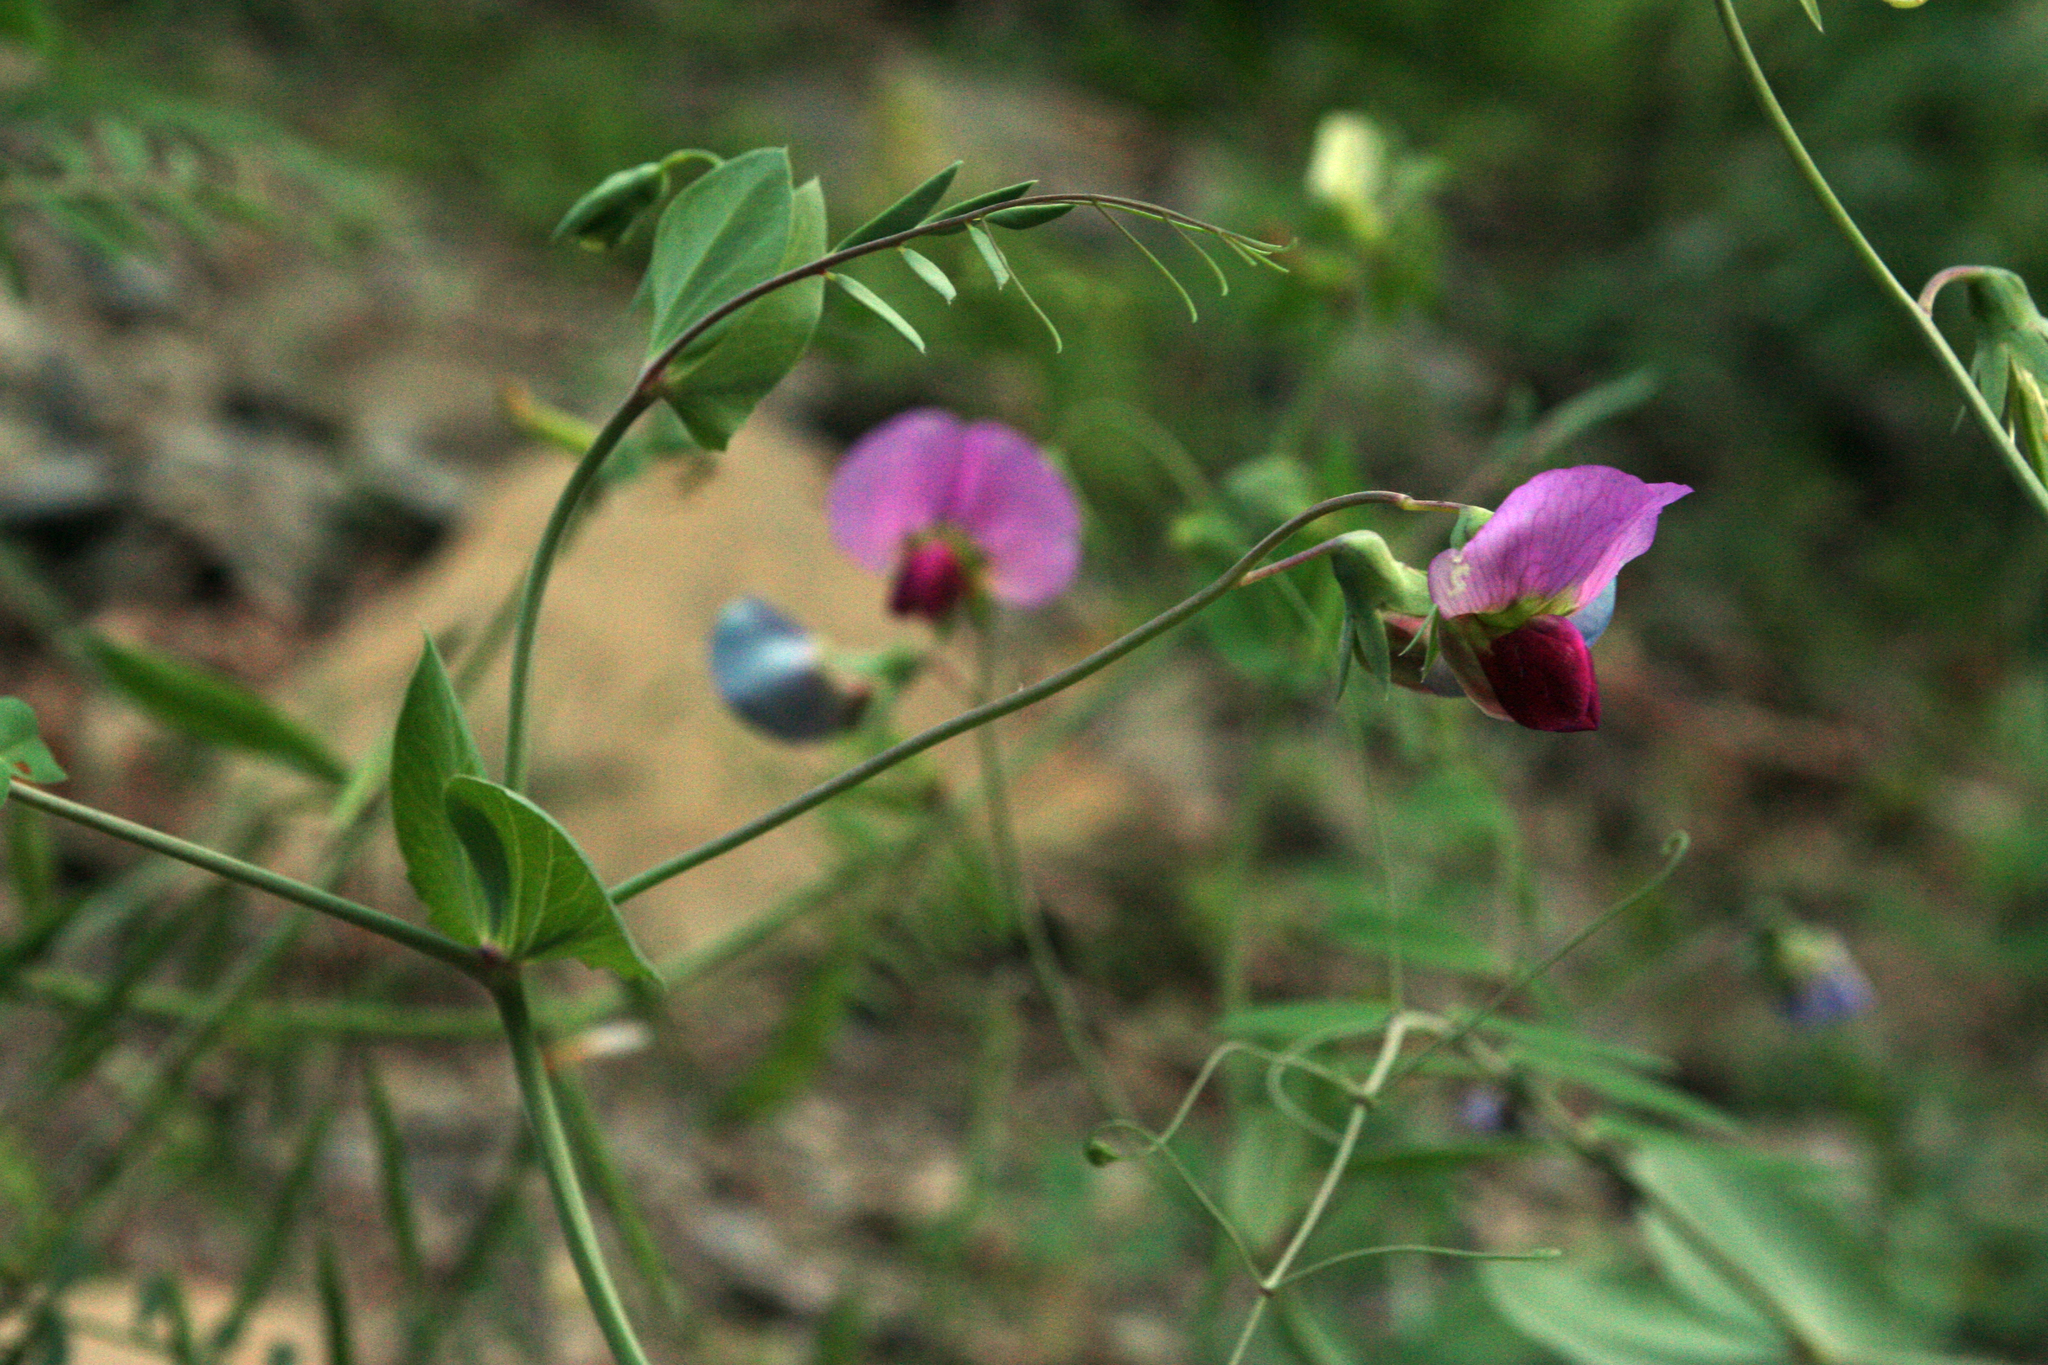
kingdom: Plantae
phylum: Tracheophyta
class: Magnoliopsida
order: Fabales
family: Fabaceae
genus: Lathyrus
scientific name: Lathyrus oleraceus
